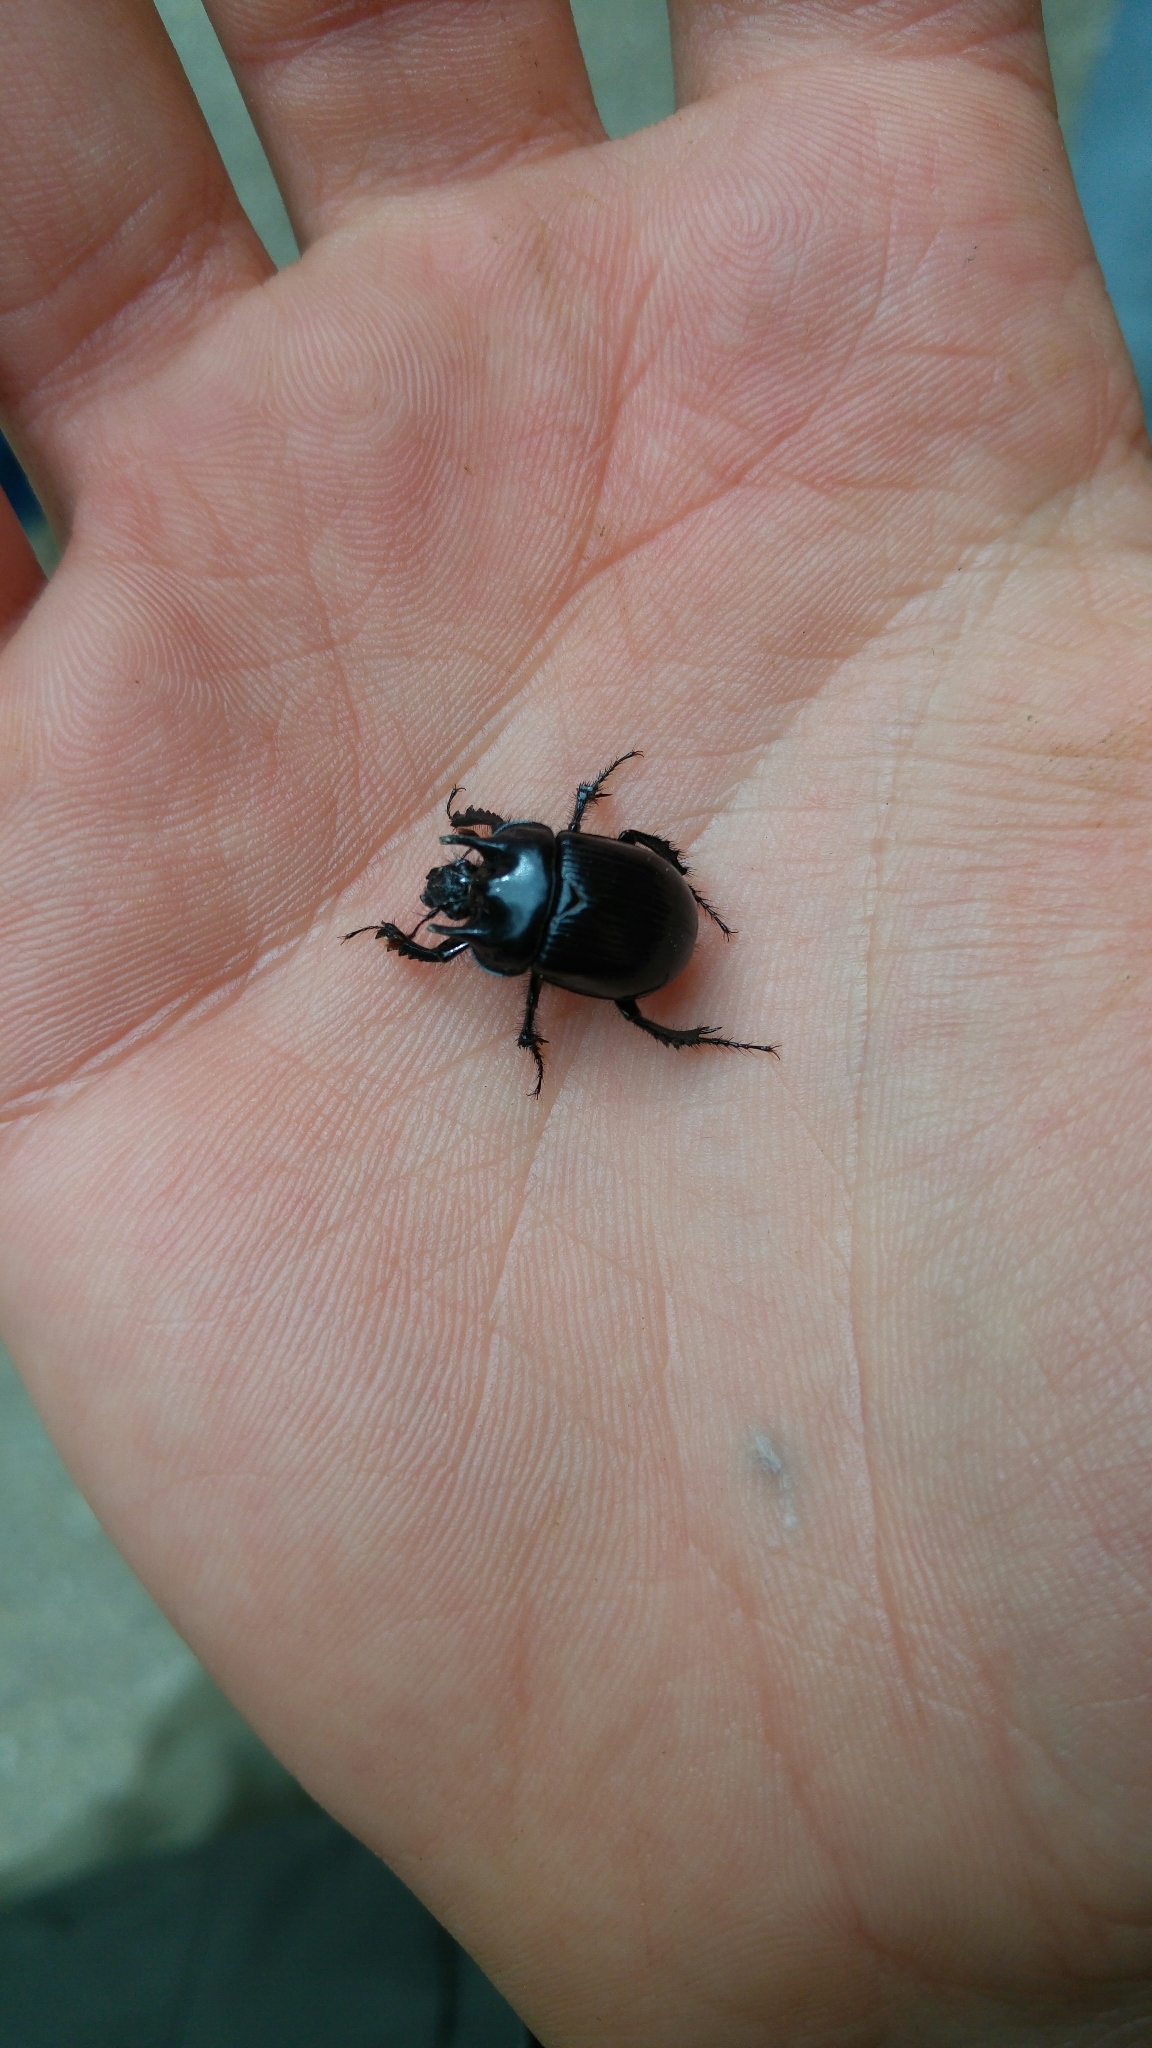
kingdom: Animalia
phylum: Arthropoda
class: Insecta
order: Coleoptera
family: Geotrupidae
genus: Typhaeus
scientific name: Typhaeus typhoeus
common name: Minotaur beetle
